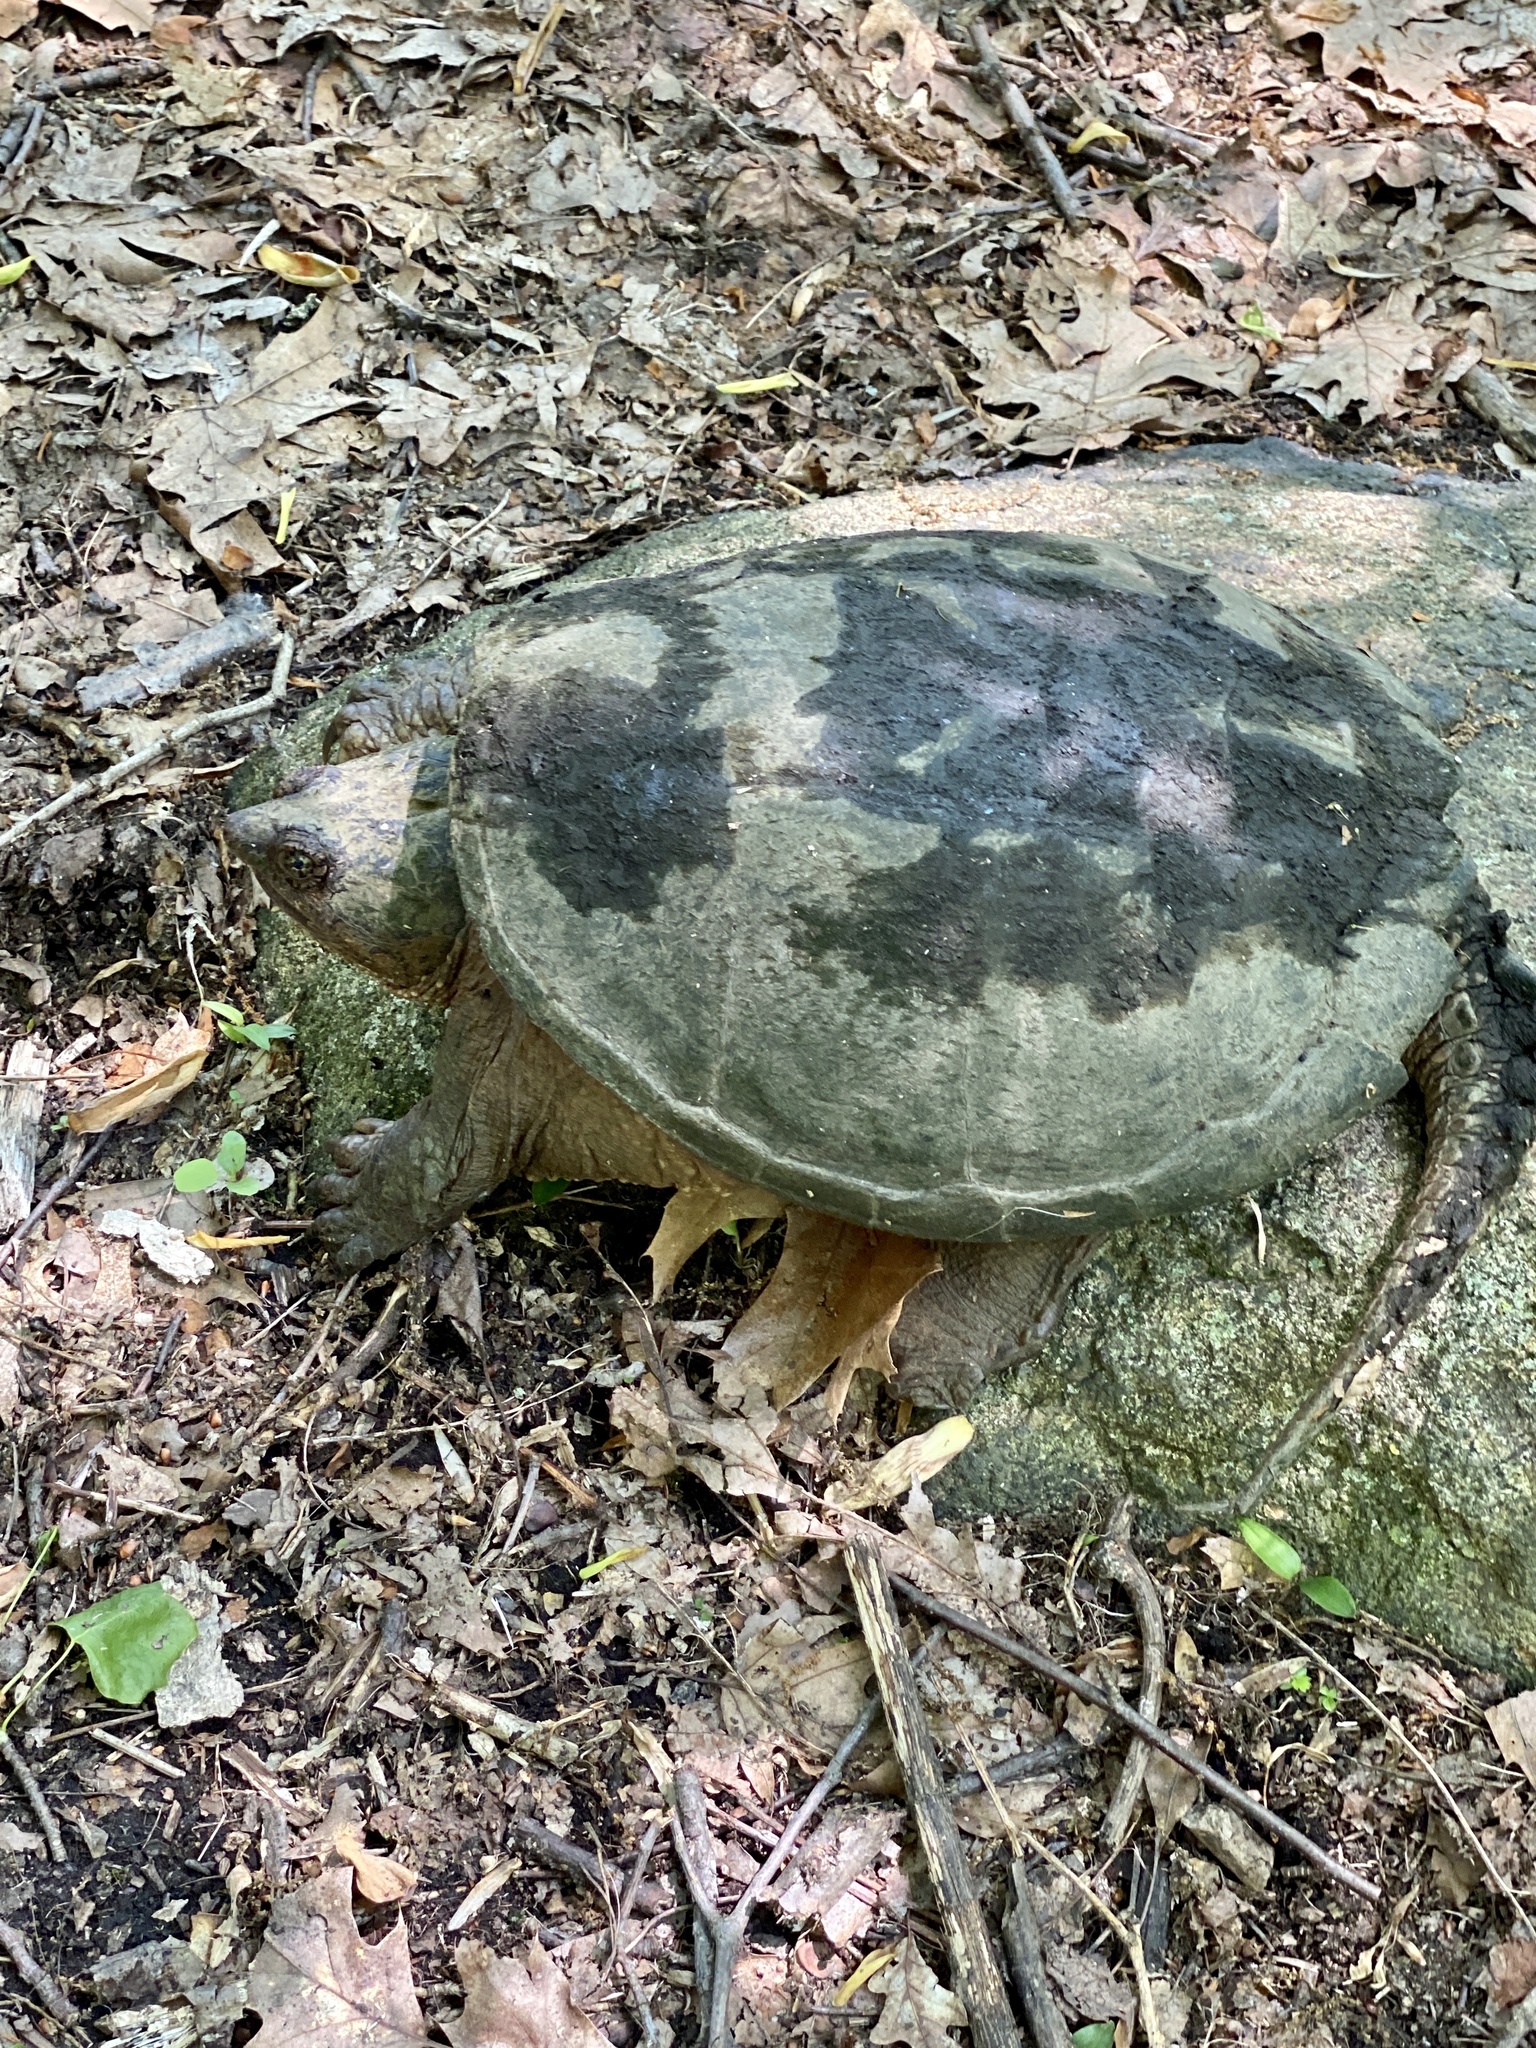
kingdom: Animalia
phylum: Chordata
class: Testudines
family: Chelydridae
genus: Chelydra
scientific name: Chelydra serpentina
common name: Common snapping turtle
